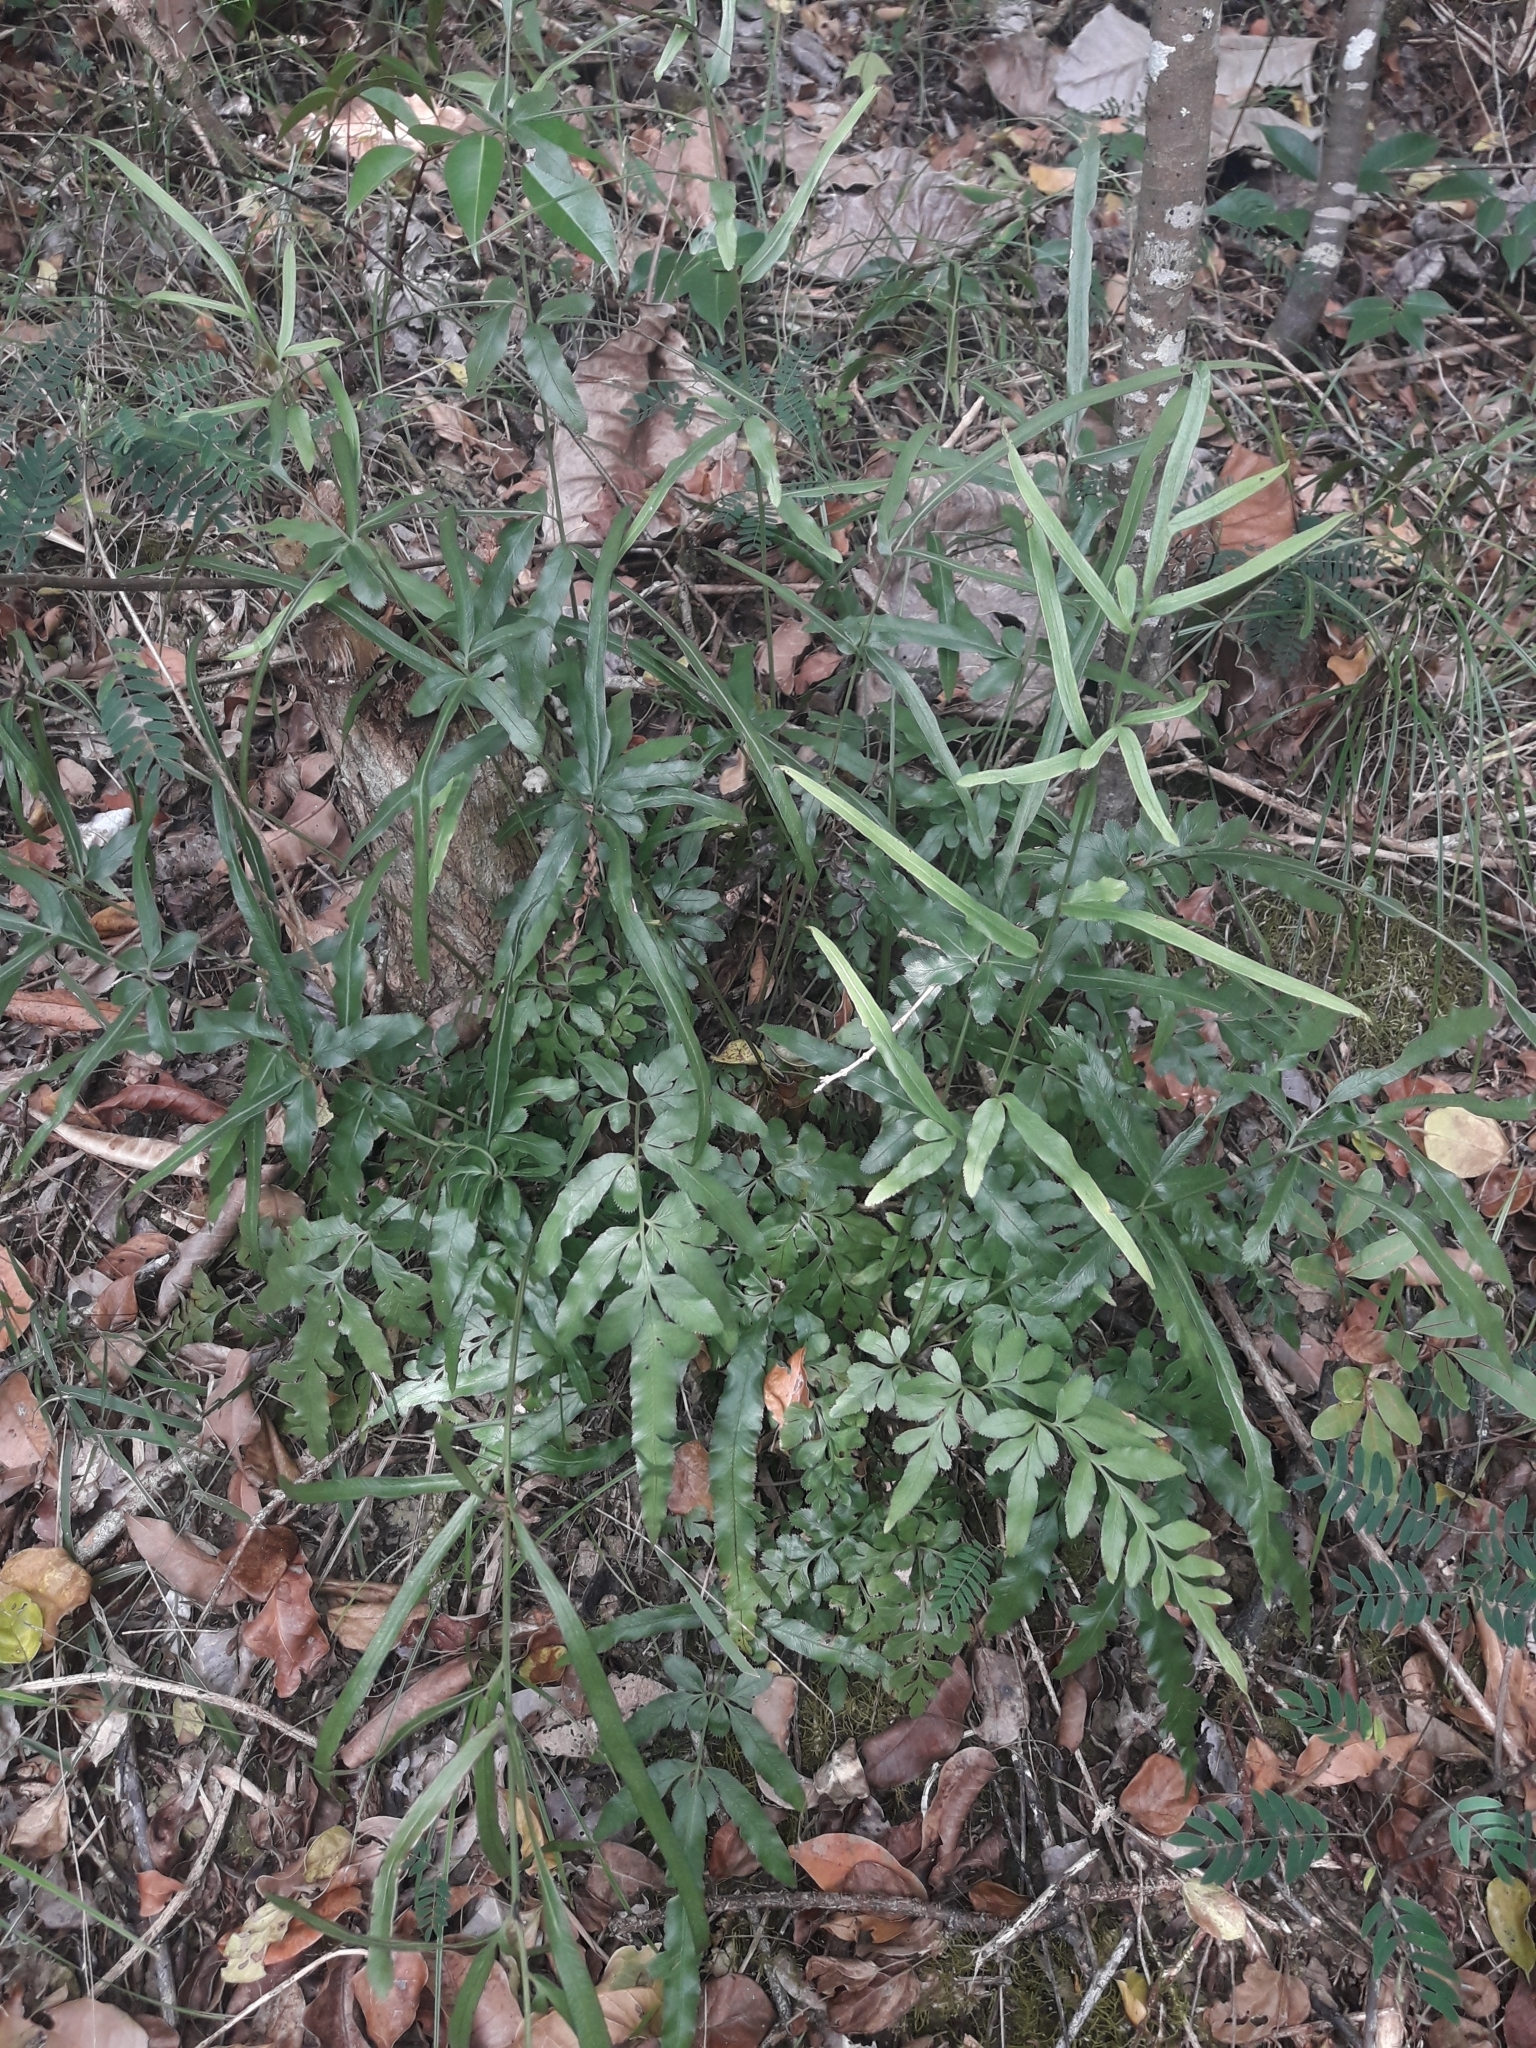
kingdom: Plantae
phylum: Tracheophyta
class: Polypodiopsida
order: Polypodiales
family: Pteridaceae
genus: Pteris
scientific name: Pteris ensiformis
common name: Sword brake
